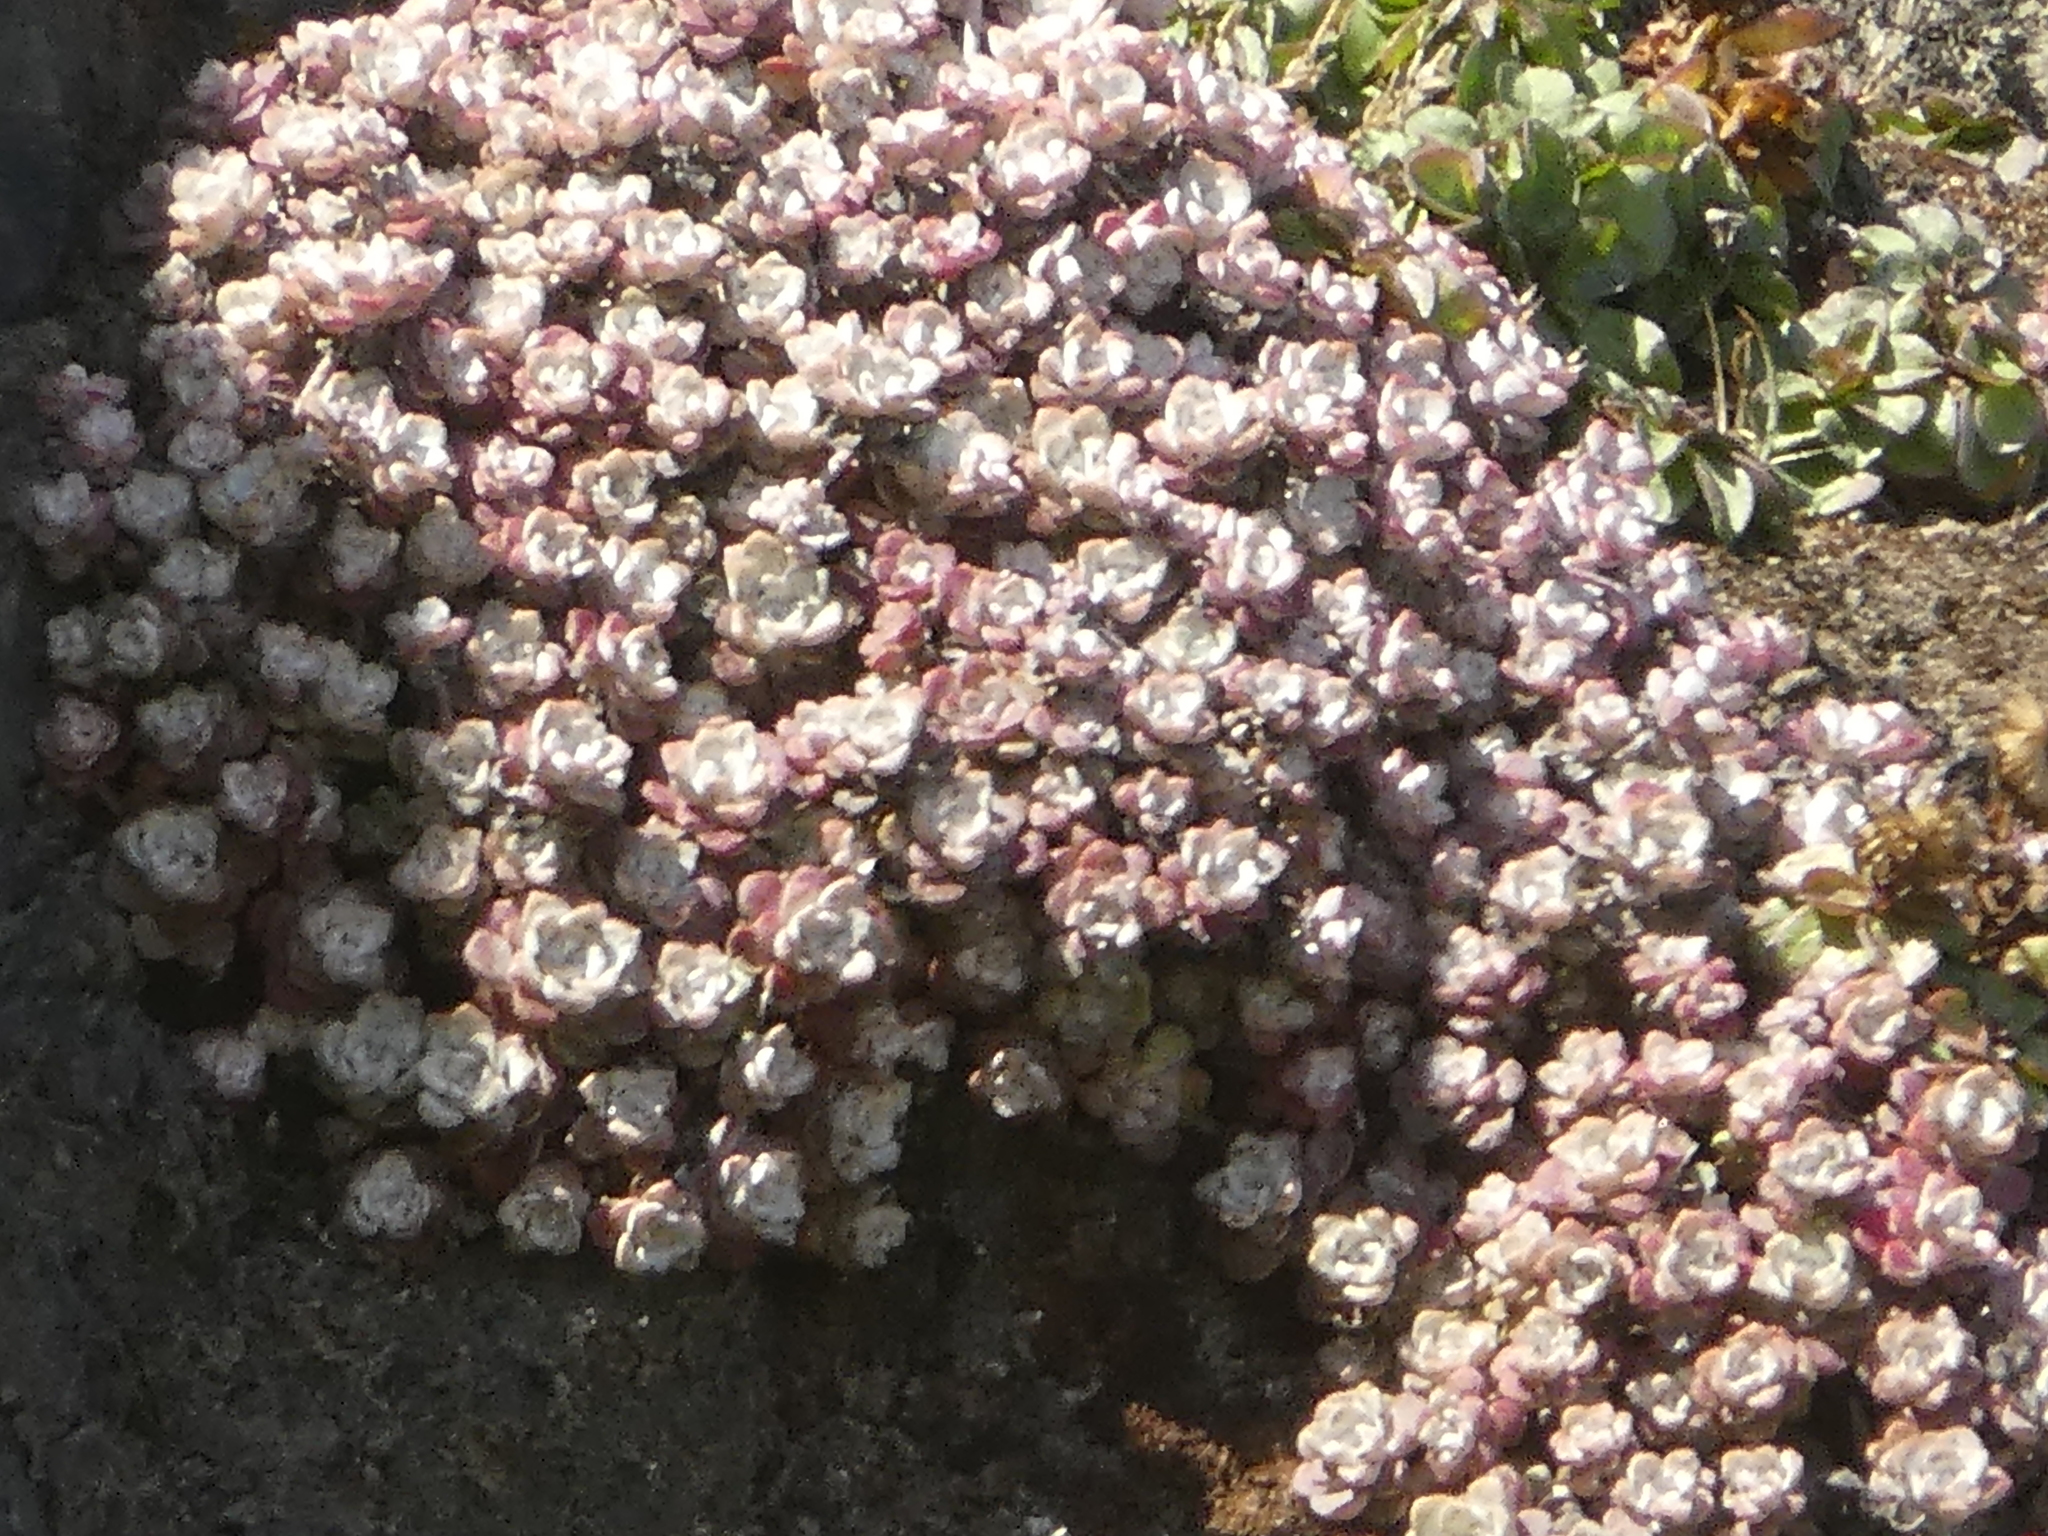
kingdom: Plantae
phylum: Tracheophyta
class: Magnoliopsida
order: Saxifragales
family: Crassulaceae
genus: Sedum
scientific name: Sedum spathulifolium
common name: Colorado stonecrop
